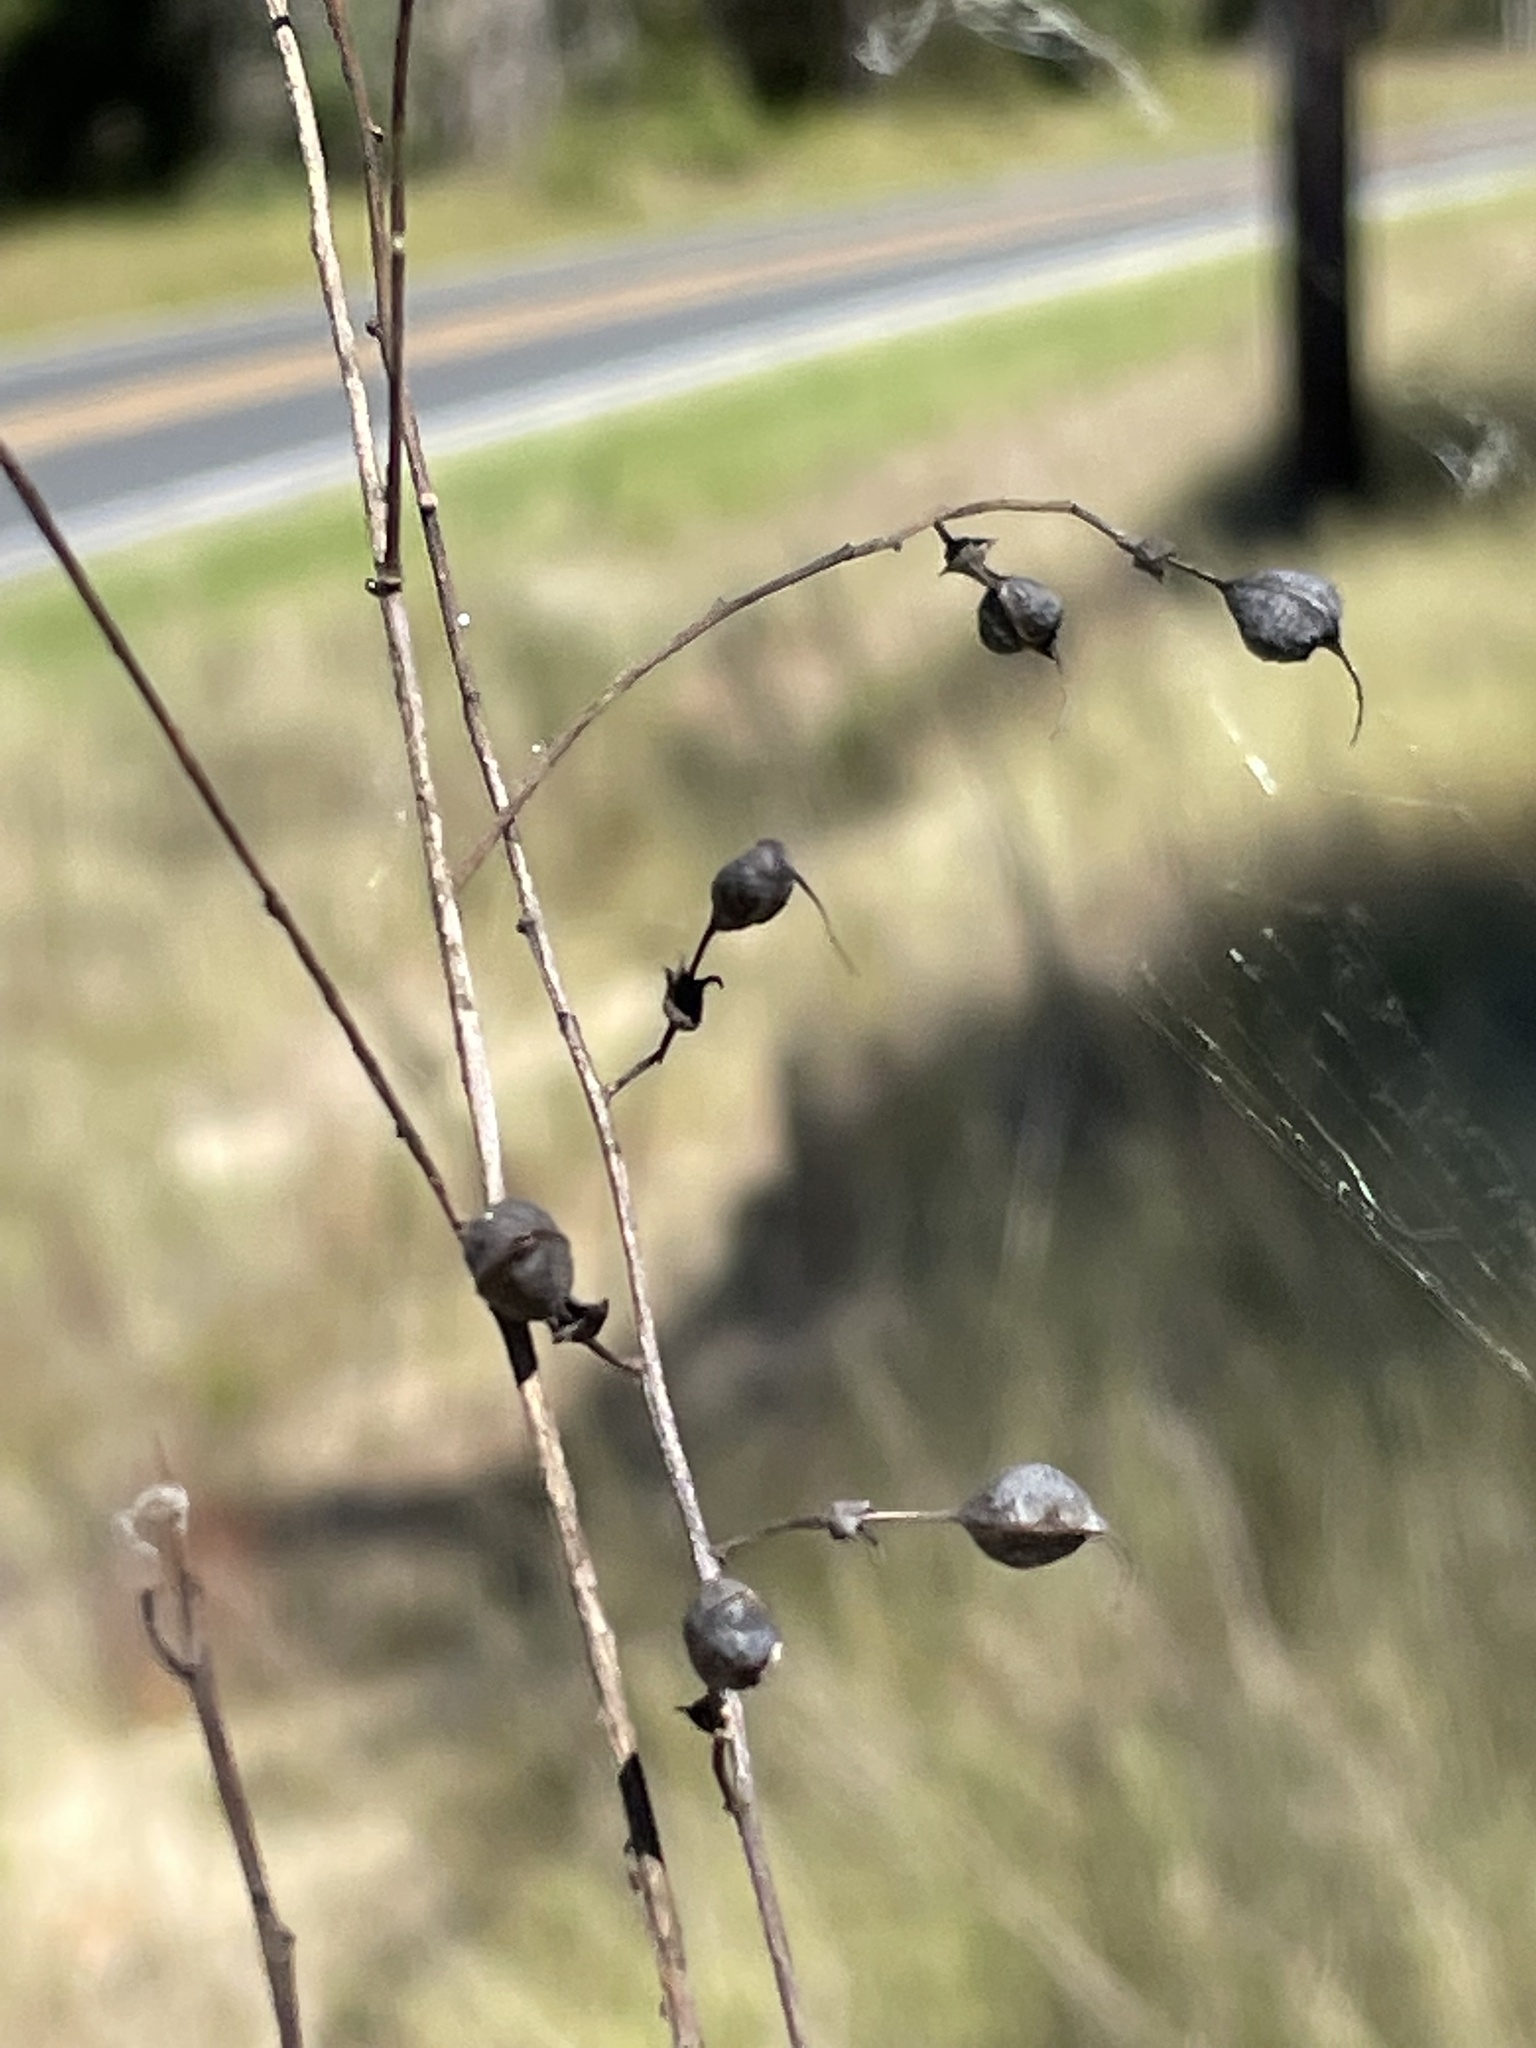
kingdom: Plantae
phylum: Tracheophyta
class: Magnoliopsida
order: Fabales
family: Fabaceae
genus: Baptisia
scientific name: Baptisia tinctoria
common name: Wild indigo
